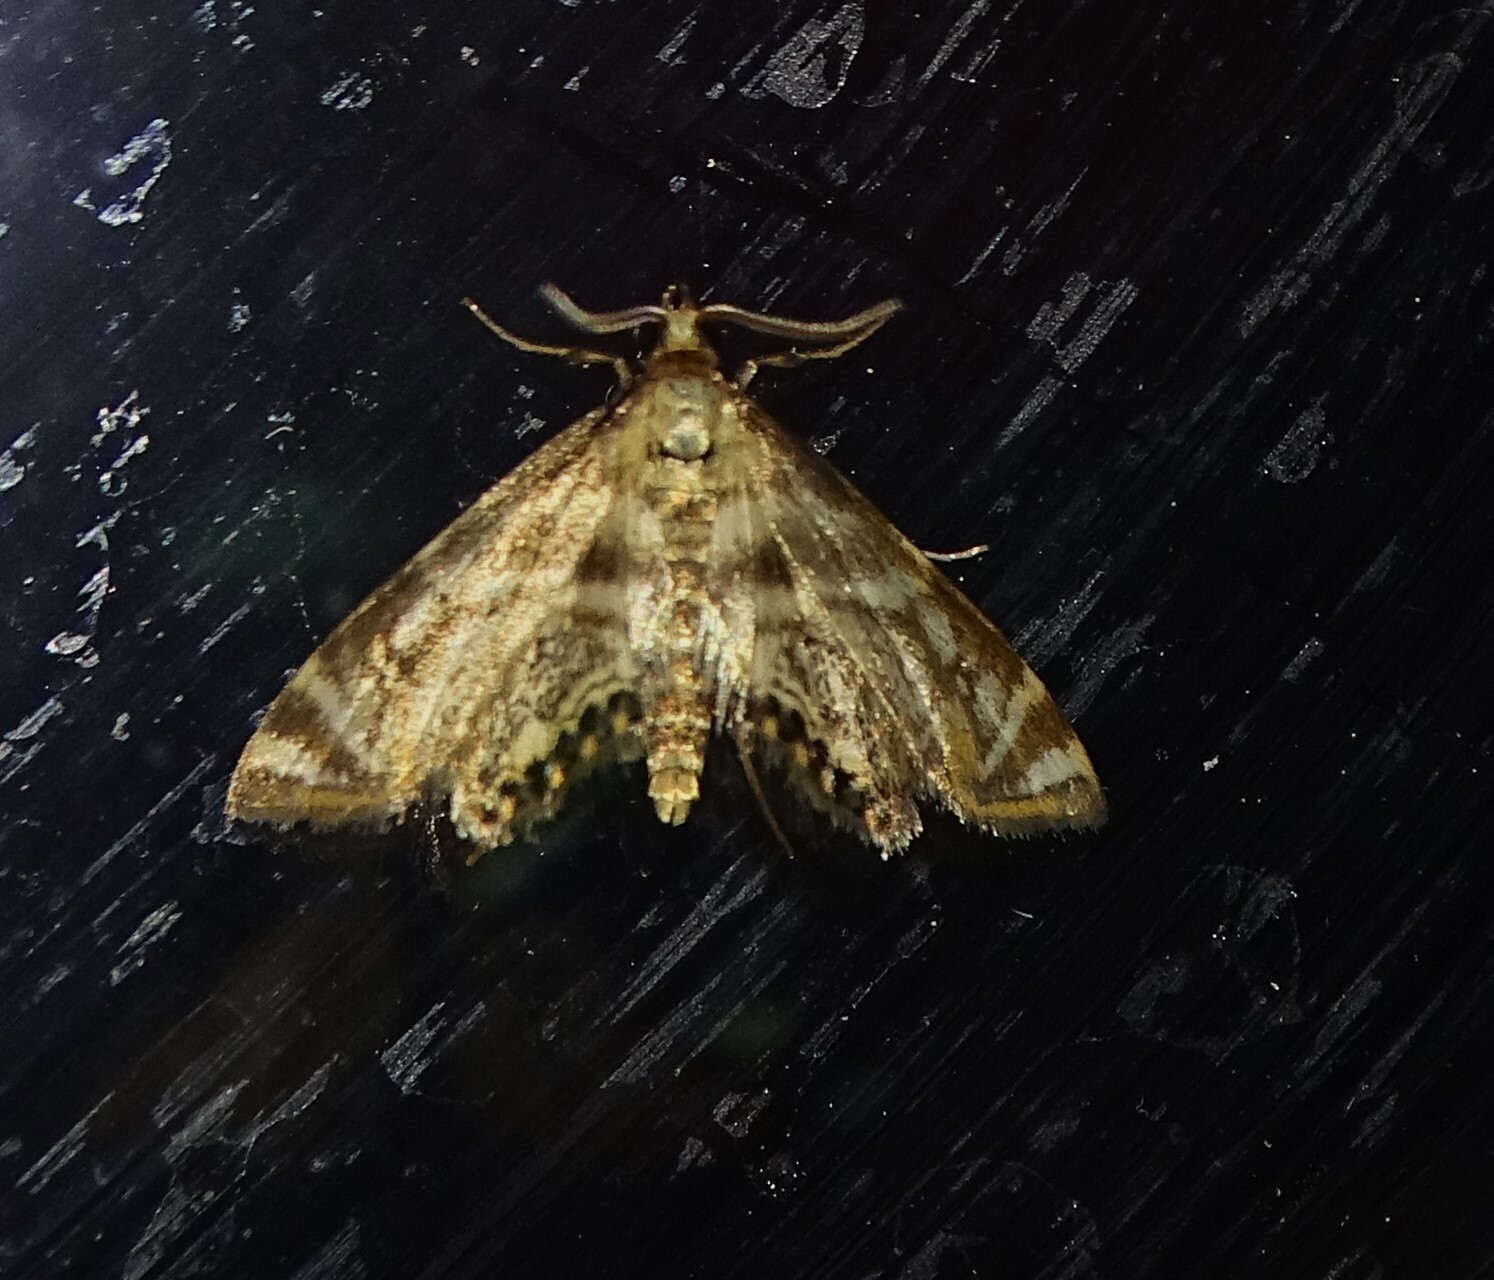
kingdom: Animalia
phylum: Arthropoda
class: Insecta
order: Lepidoptera
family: Crambidae
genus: Petrophila
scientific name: Petrophila canadensis
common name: Canadian petrophila
